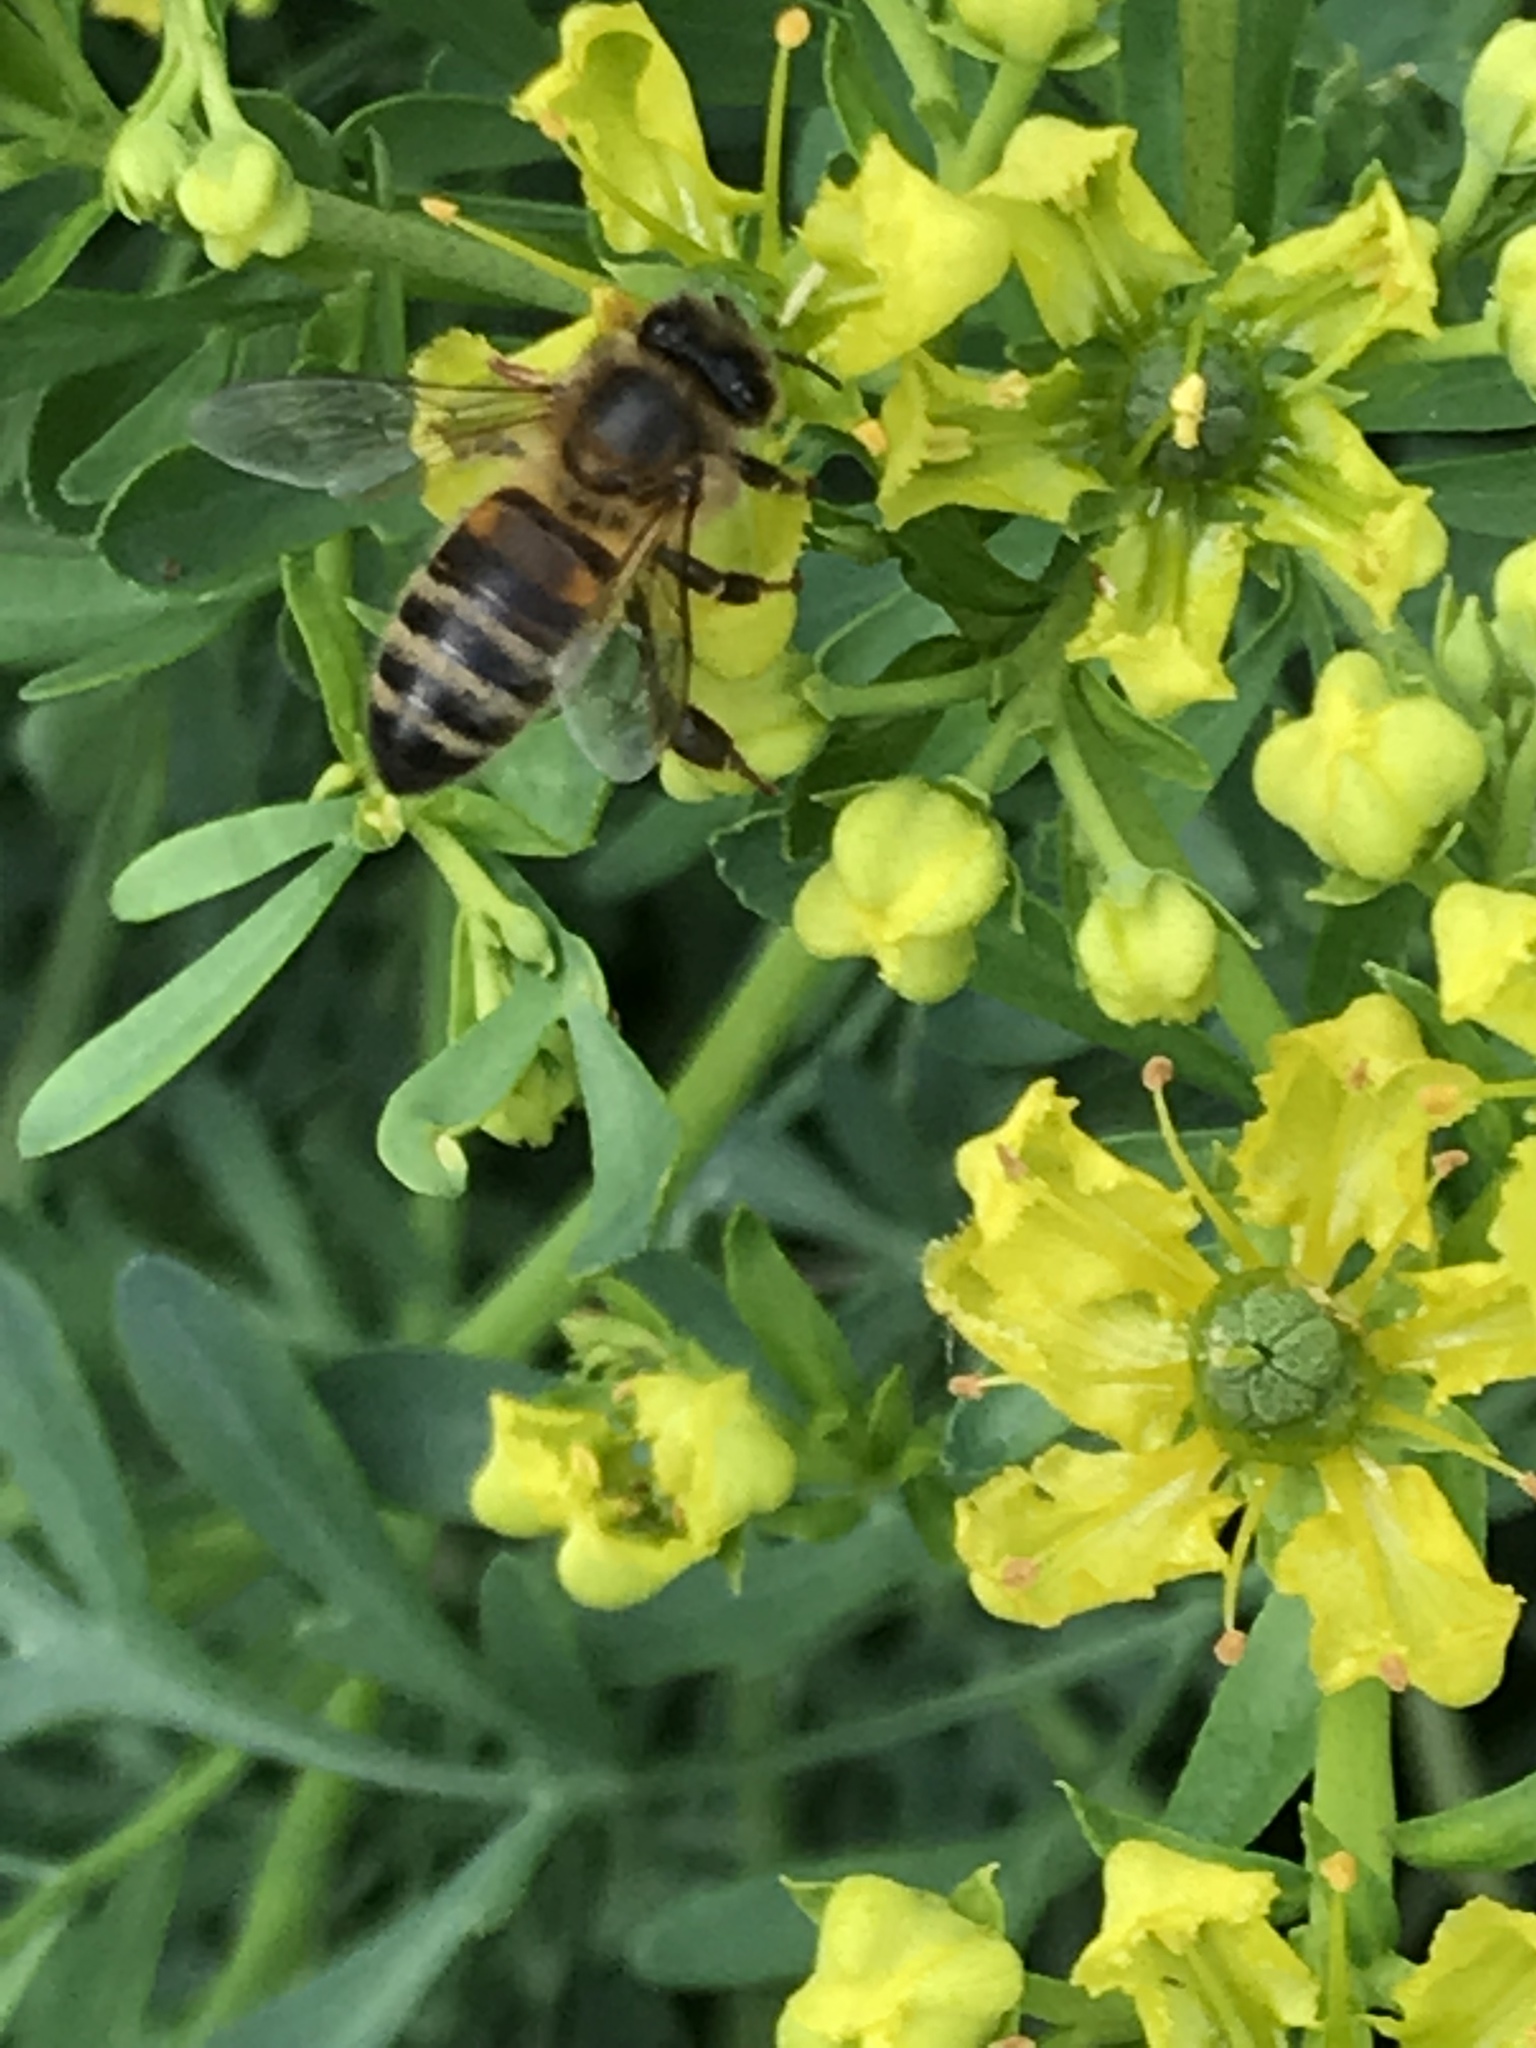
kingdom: Animalia
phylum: Arthropoda
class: Insecta
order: Hymenoptera
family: Apidae
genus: Apis
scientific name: Apis mellifera
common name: Honey bee
